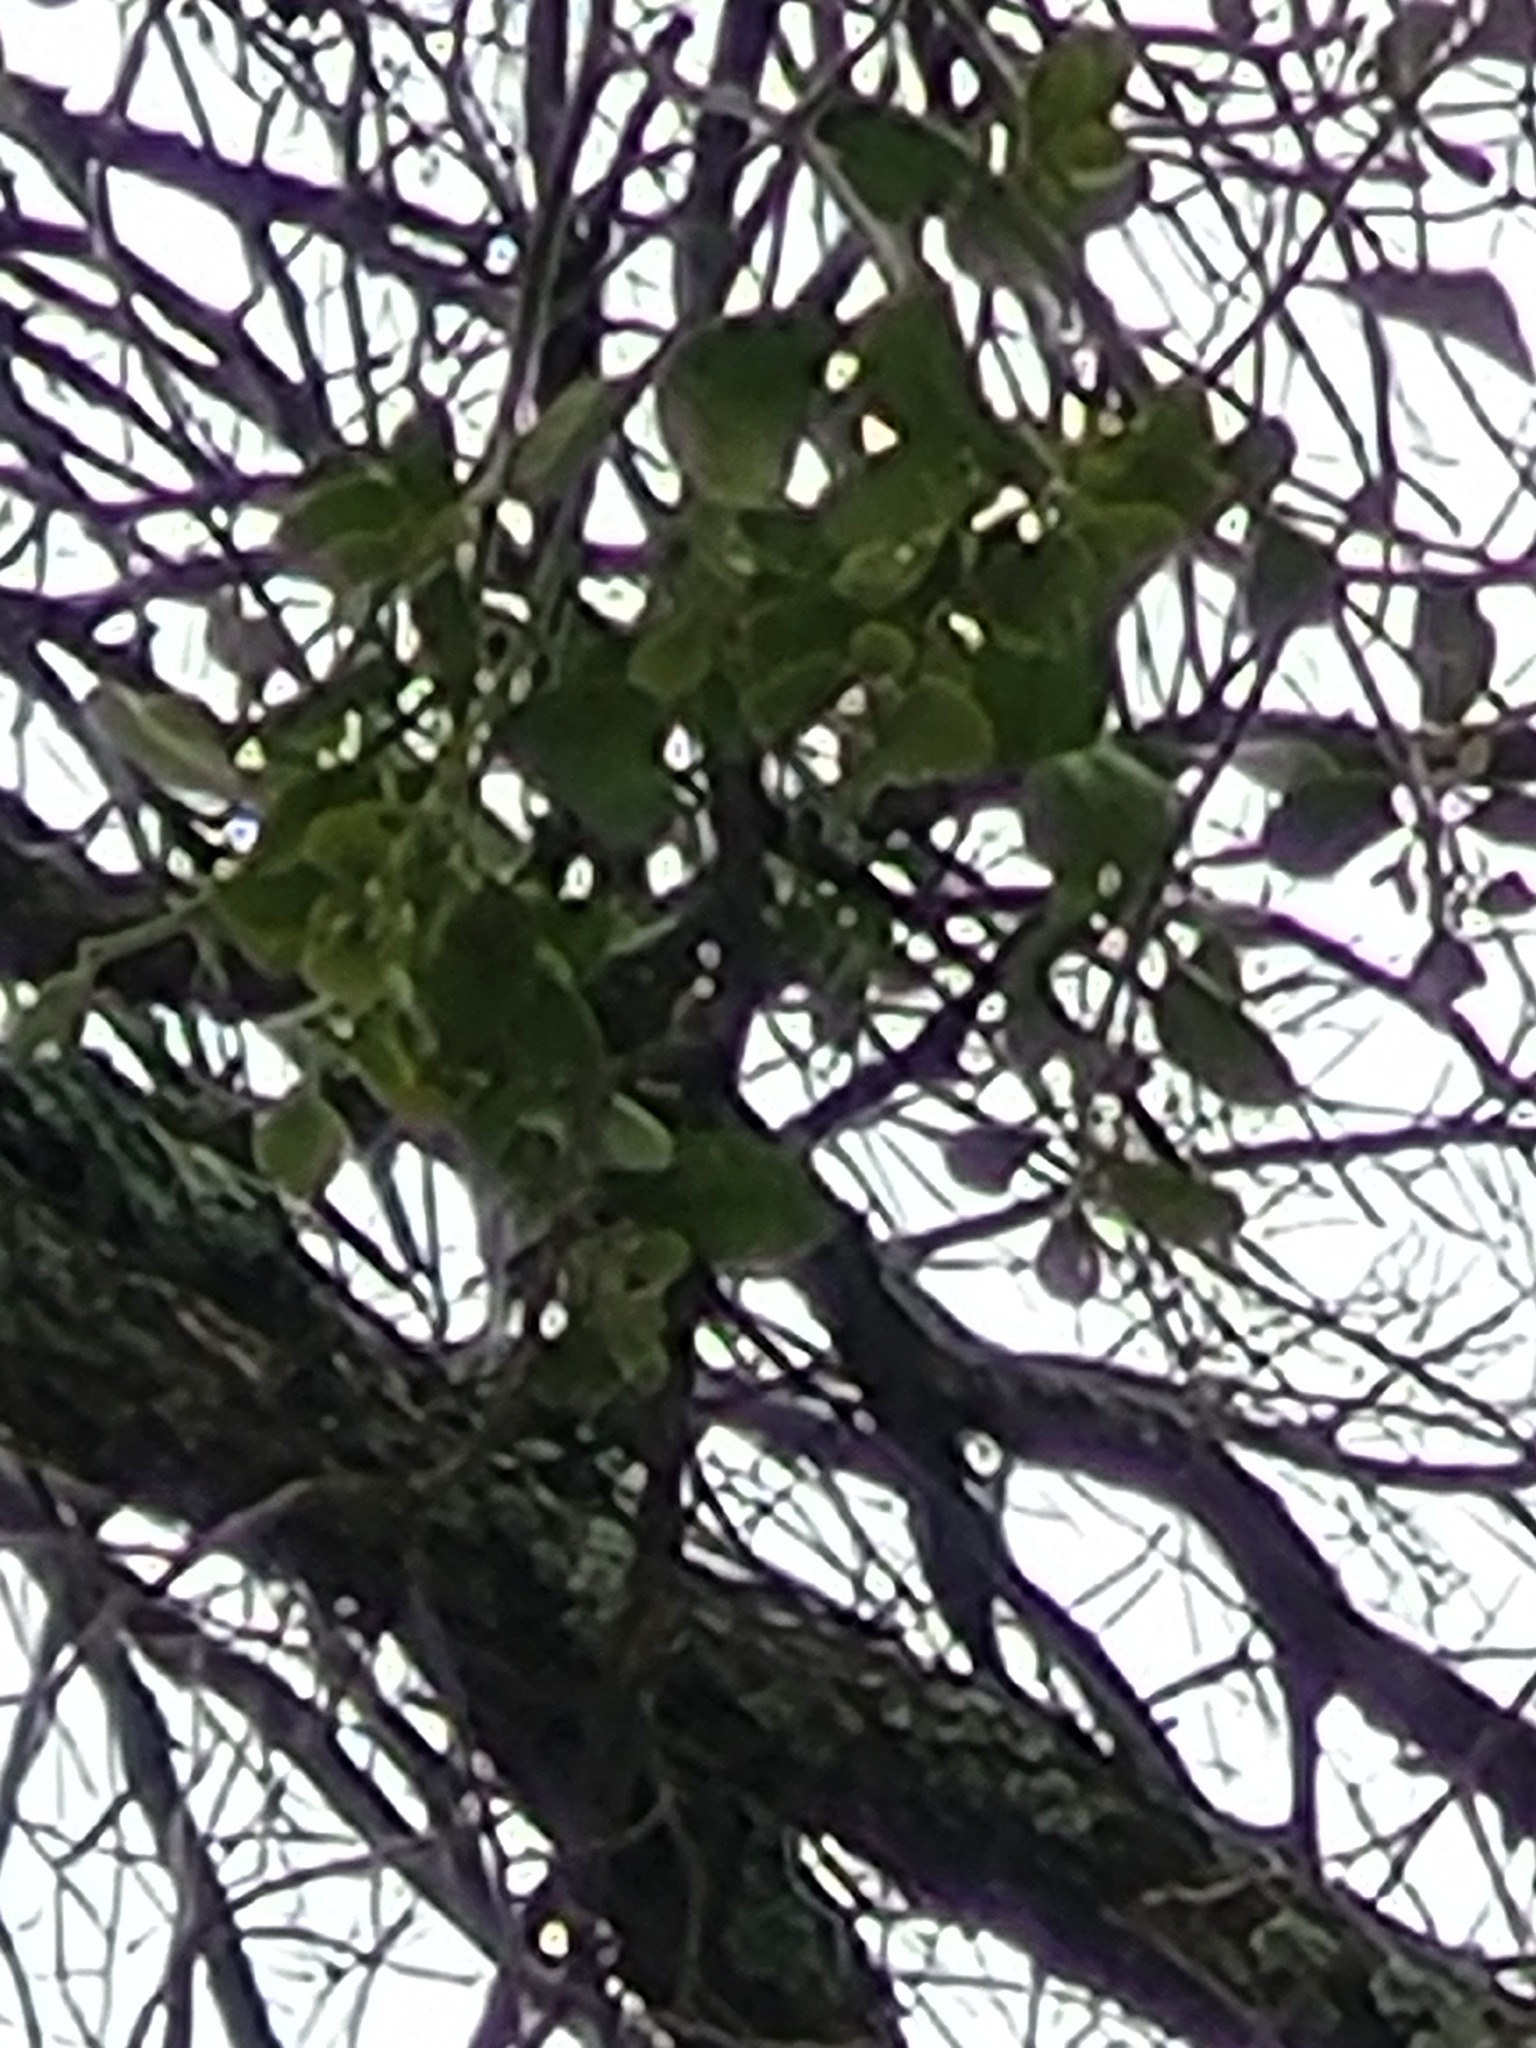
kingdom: Plantae
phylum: Tracheophyta
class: Magnoliopsida
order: Santalales
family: Viscaceae
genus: Phoradendron
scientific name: Phoradendron leucarpum
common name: Pacific mistletoe
